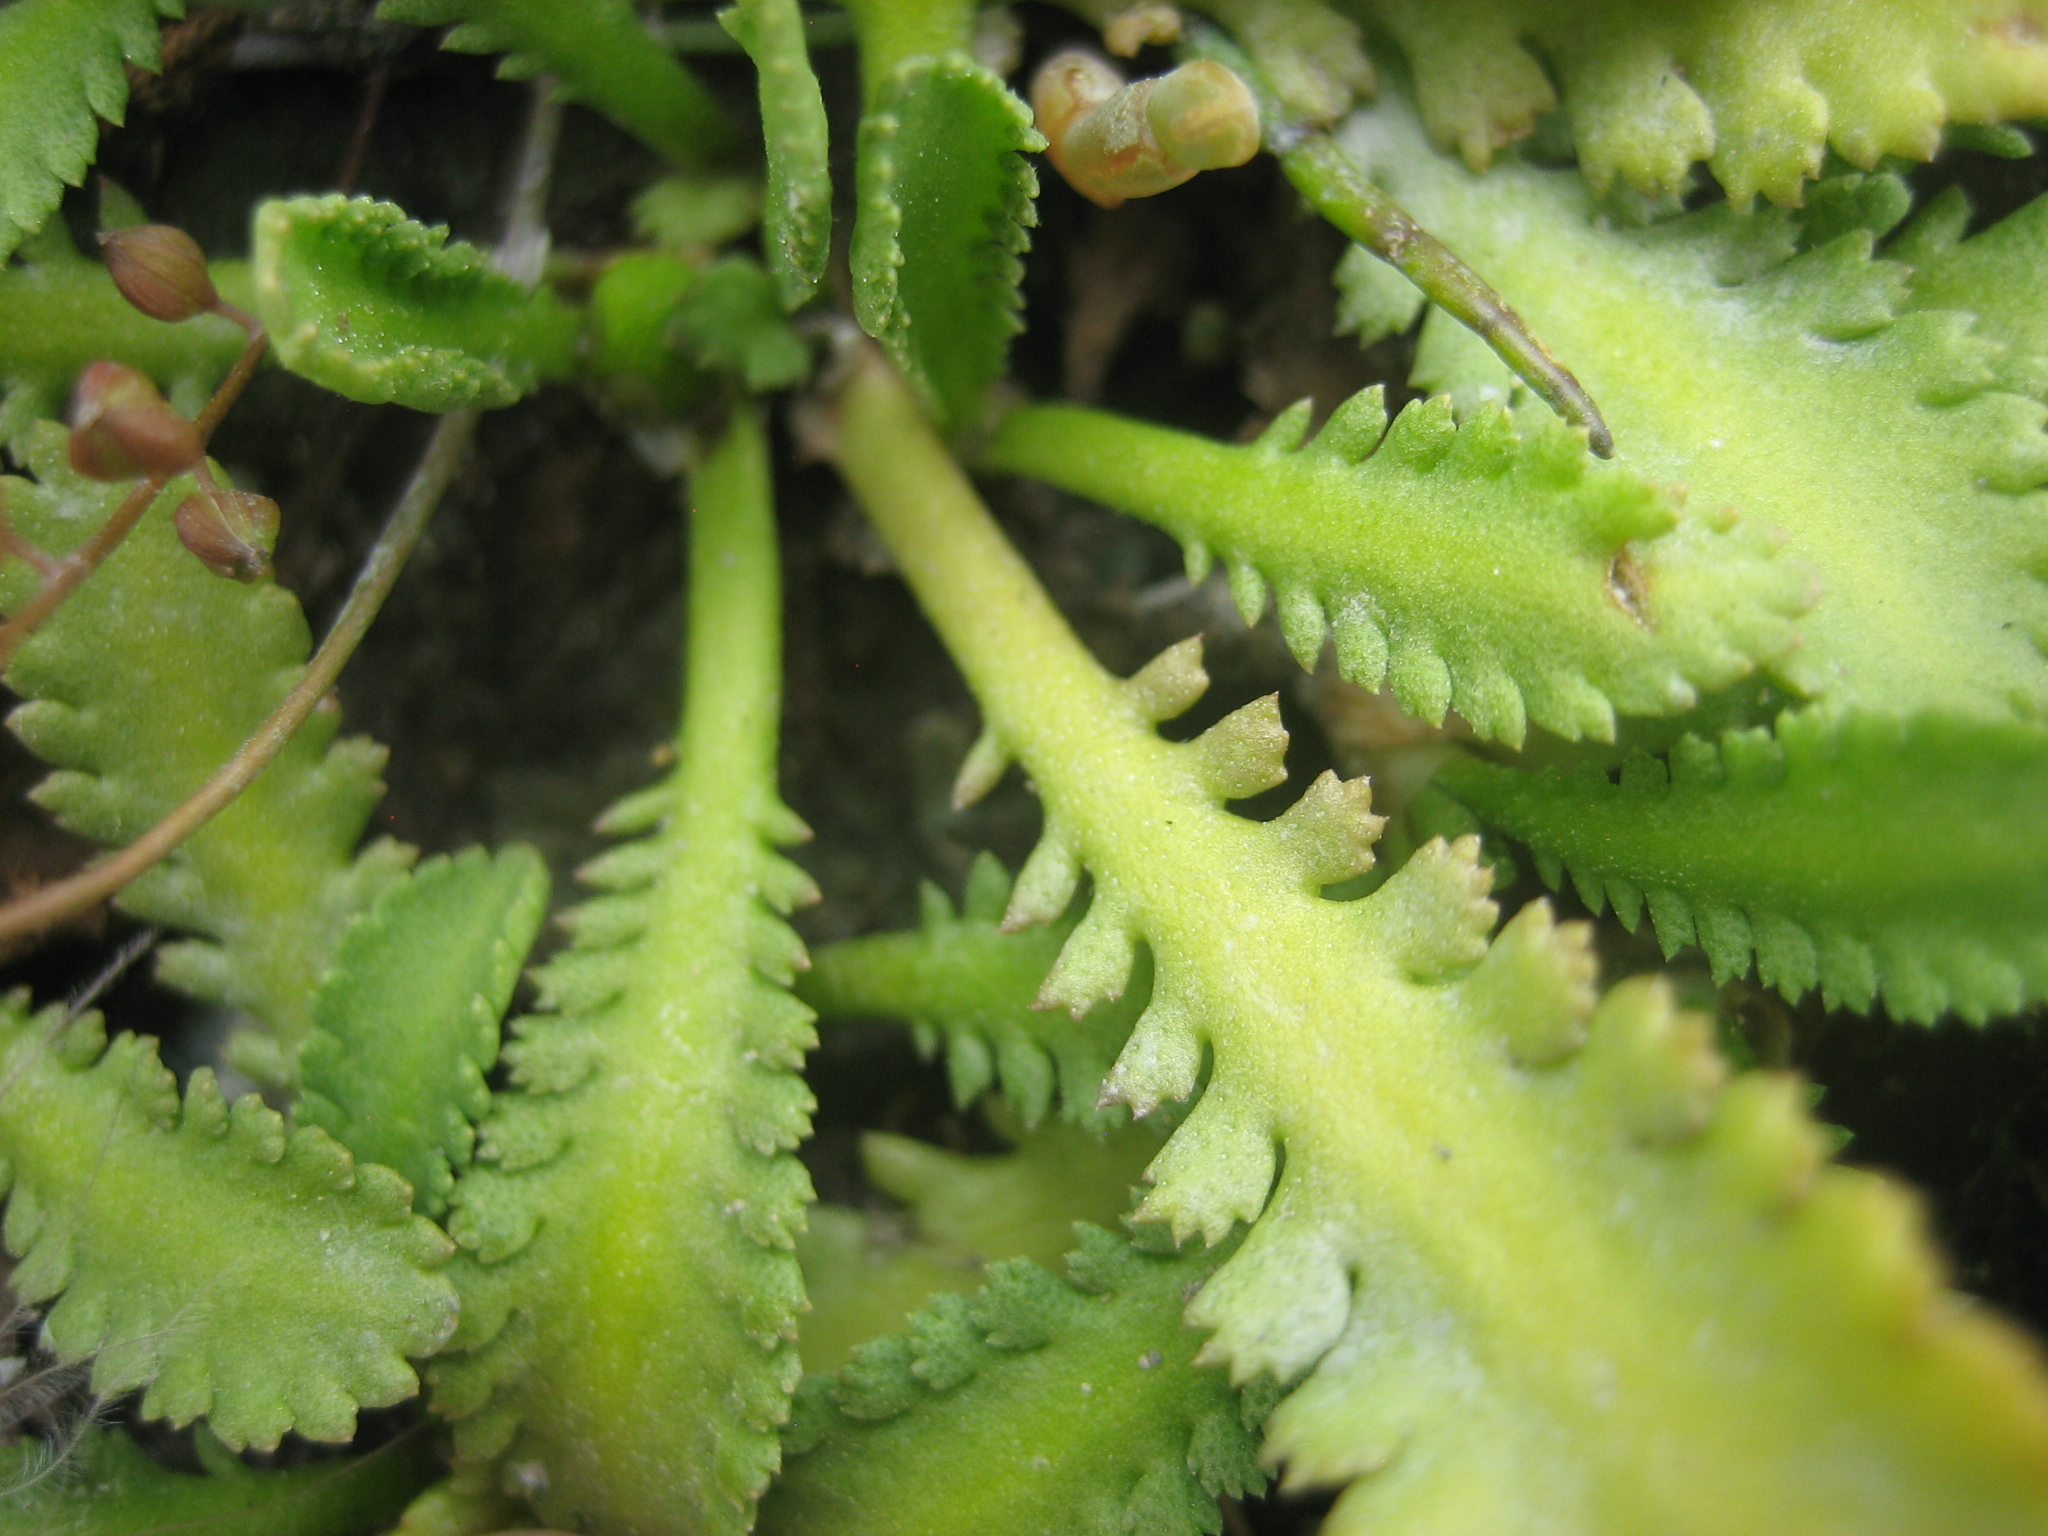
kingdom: Plantae
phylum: Tracheophyta
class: Magnoliopsida
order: Asterales
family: Asteraceae
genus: Leptinella
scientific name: Leptinella dioica
